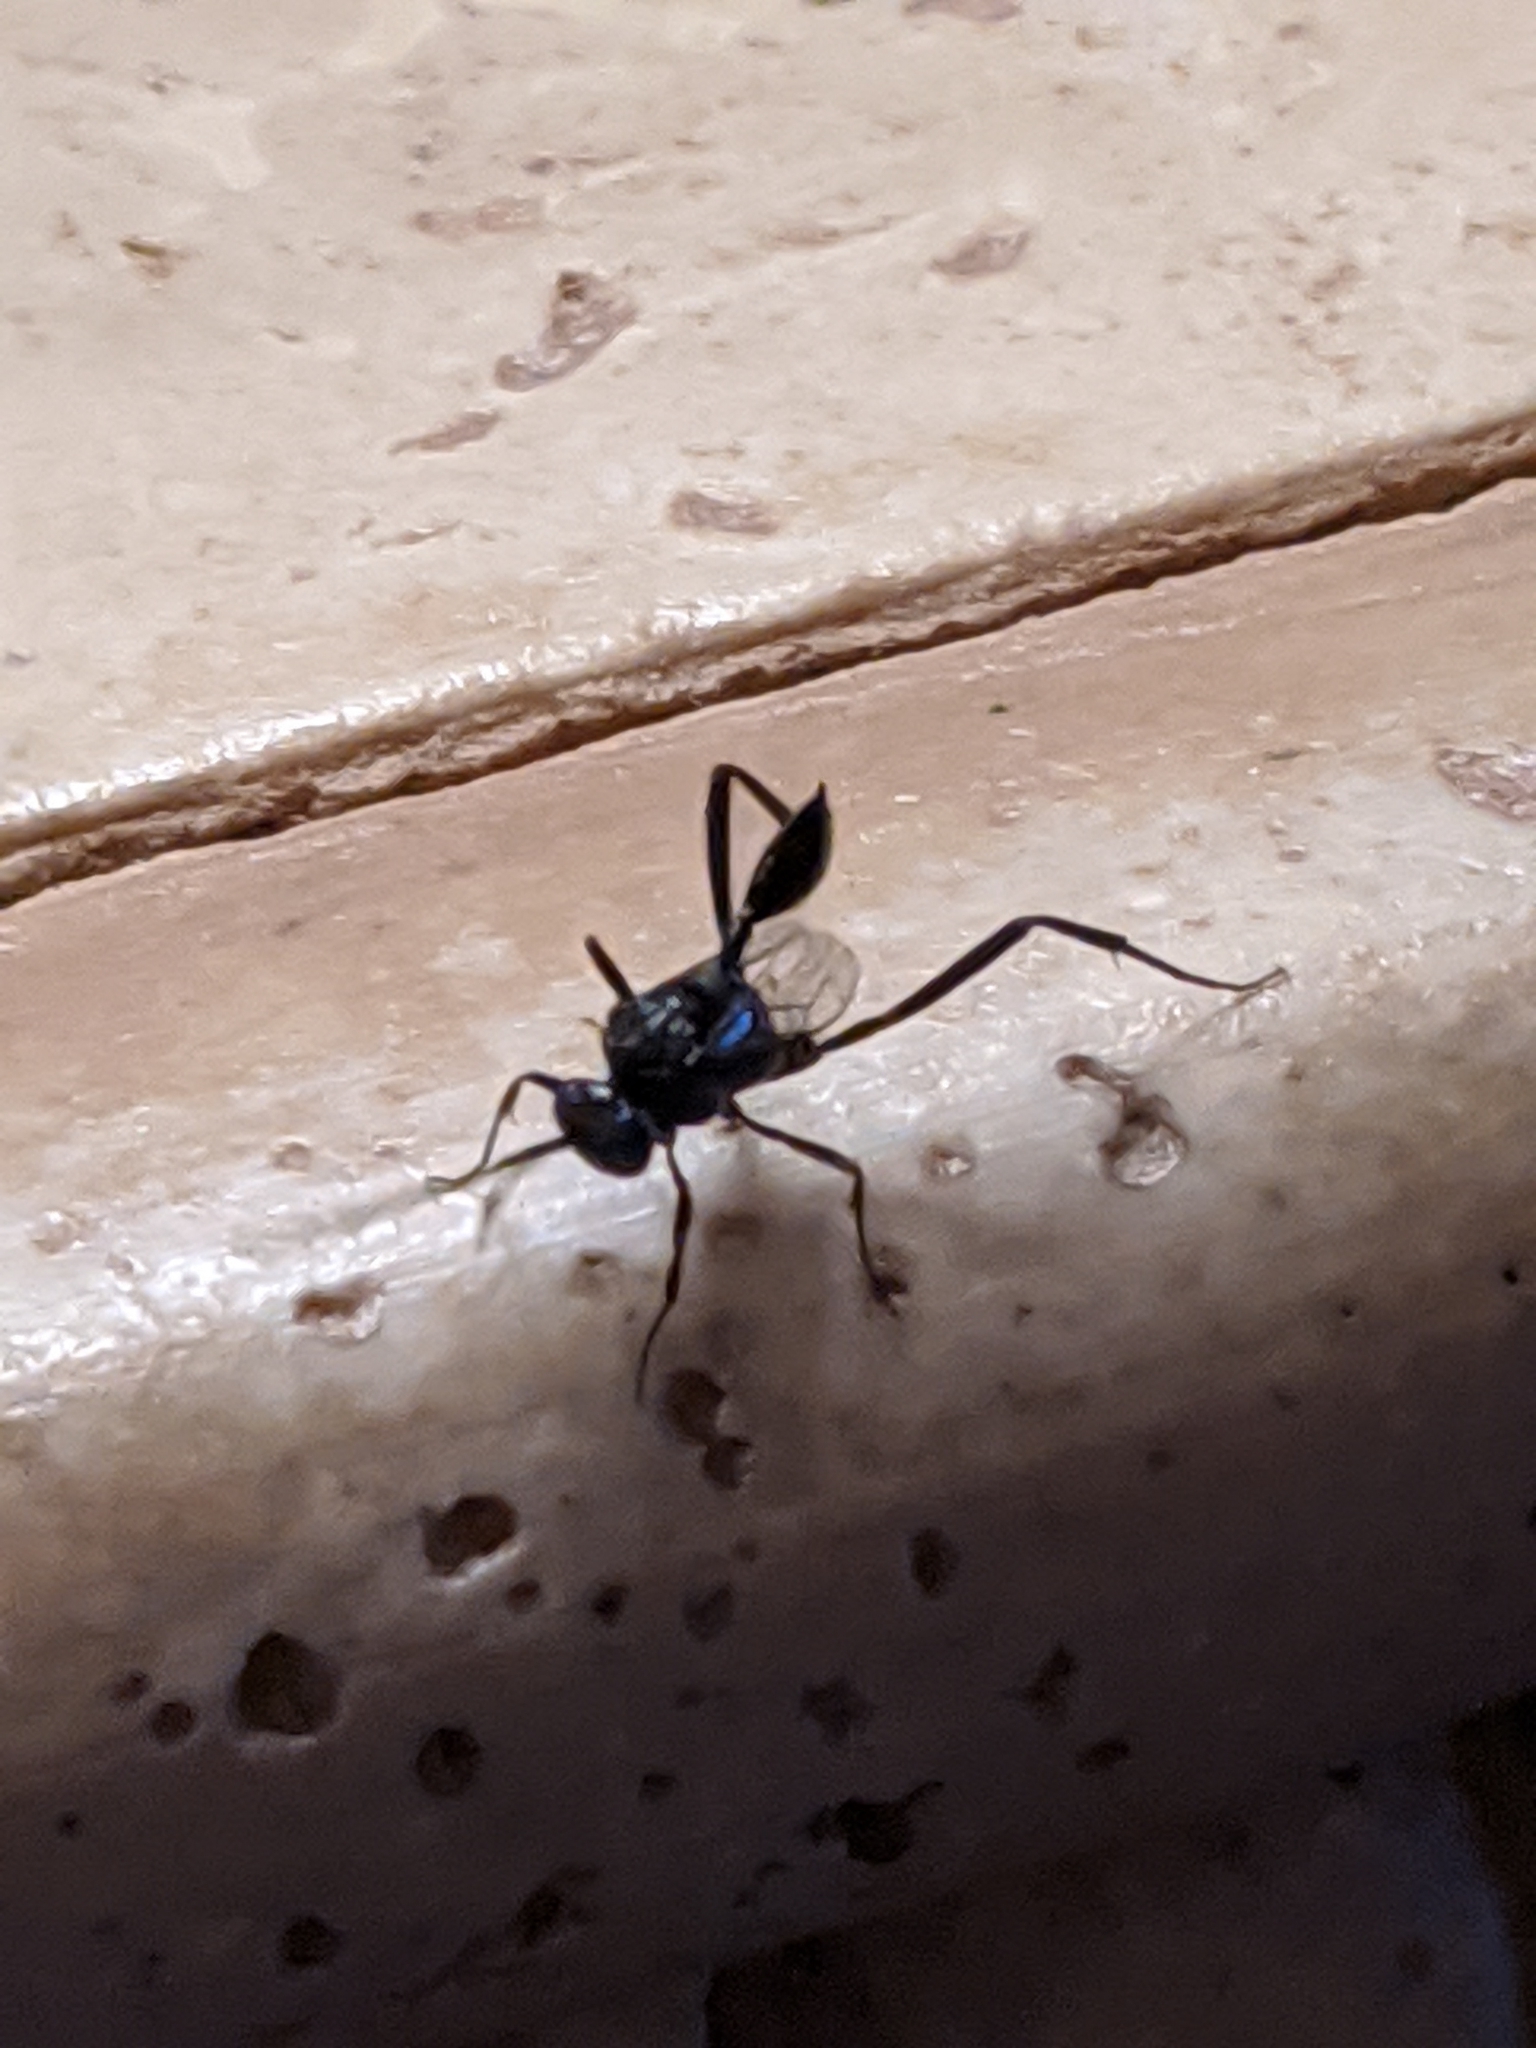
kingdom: Animalia
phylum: Arthropoda
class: Insecta
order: Hymenoptera
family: Evaniidae
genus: Evania
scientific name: Evania appendigaster
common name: Ensign wasp
